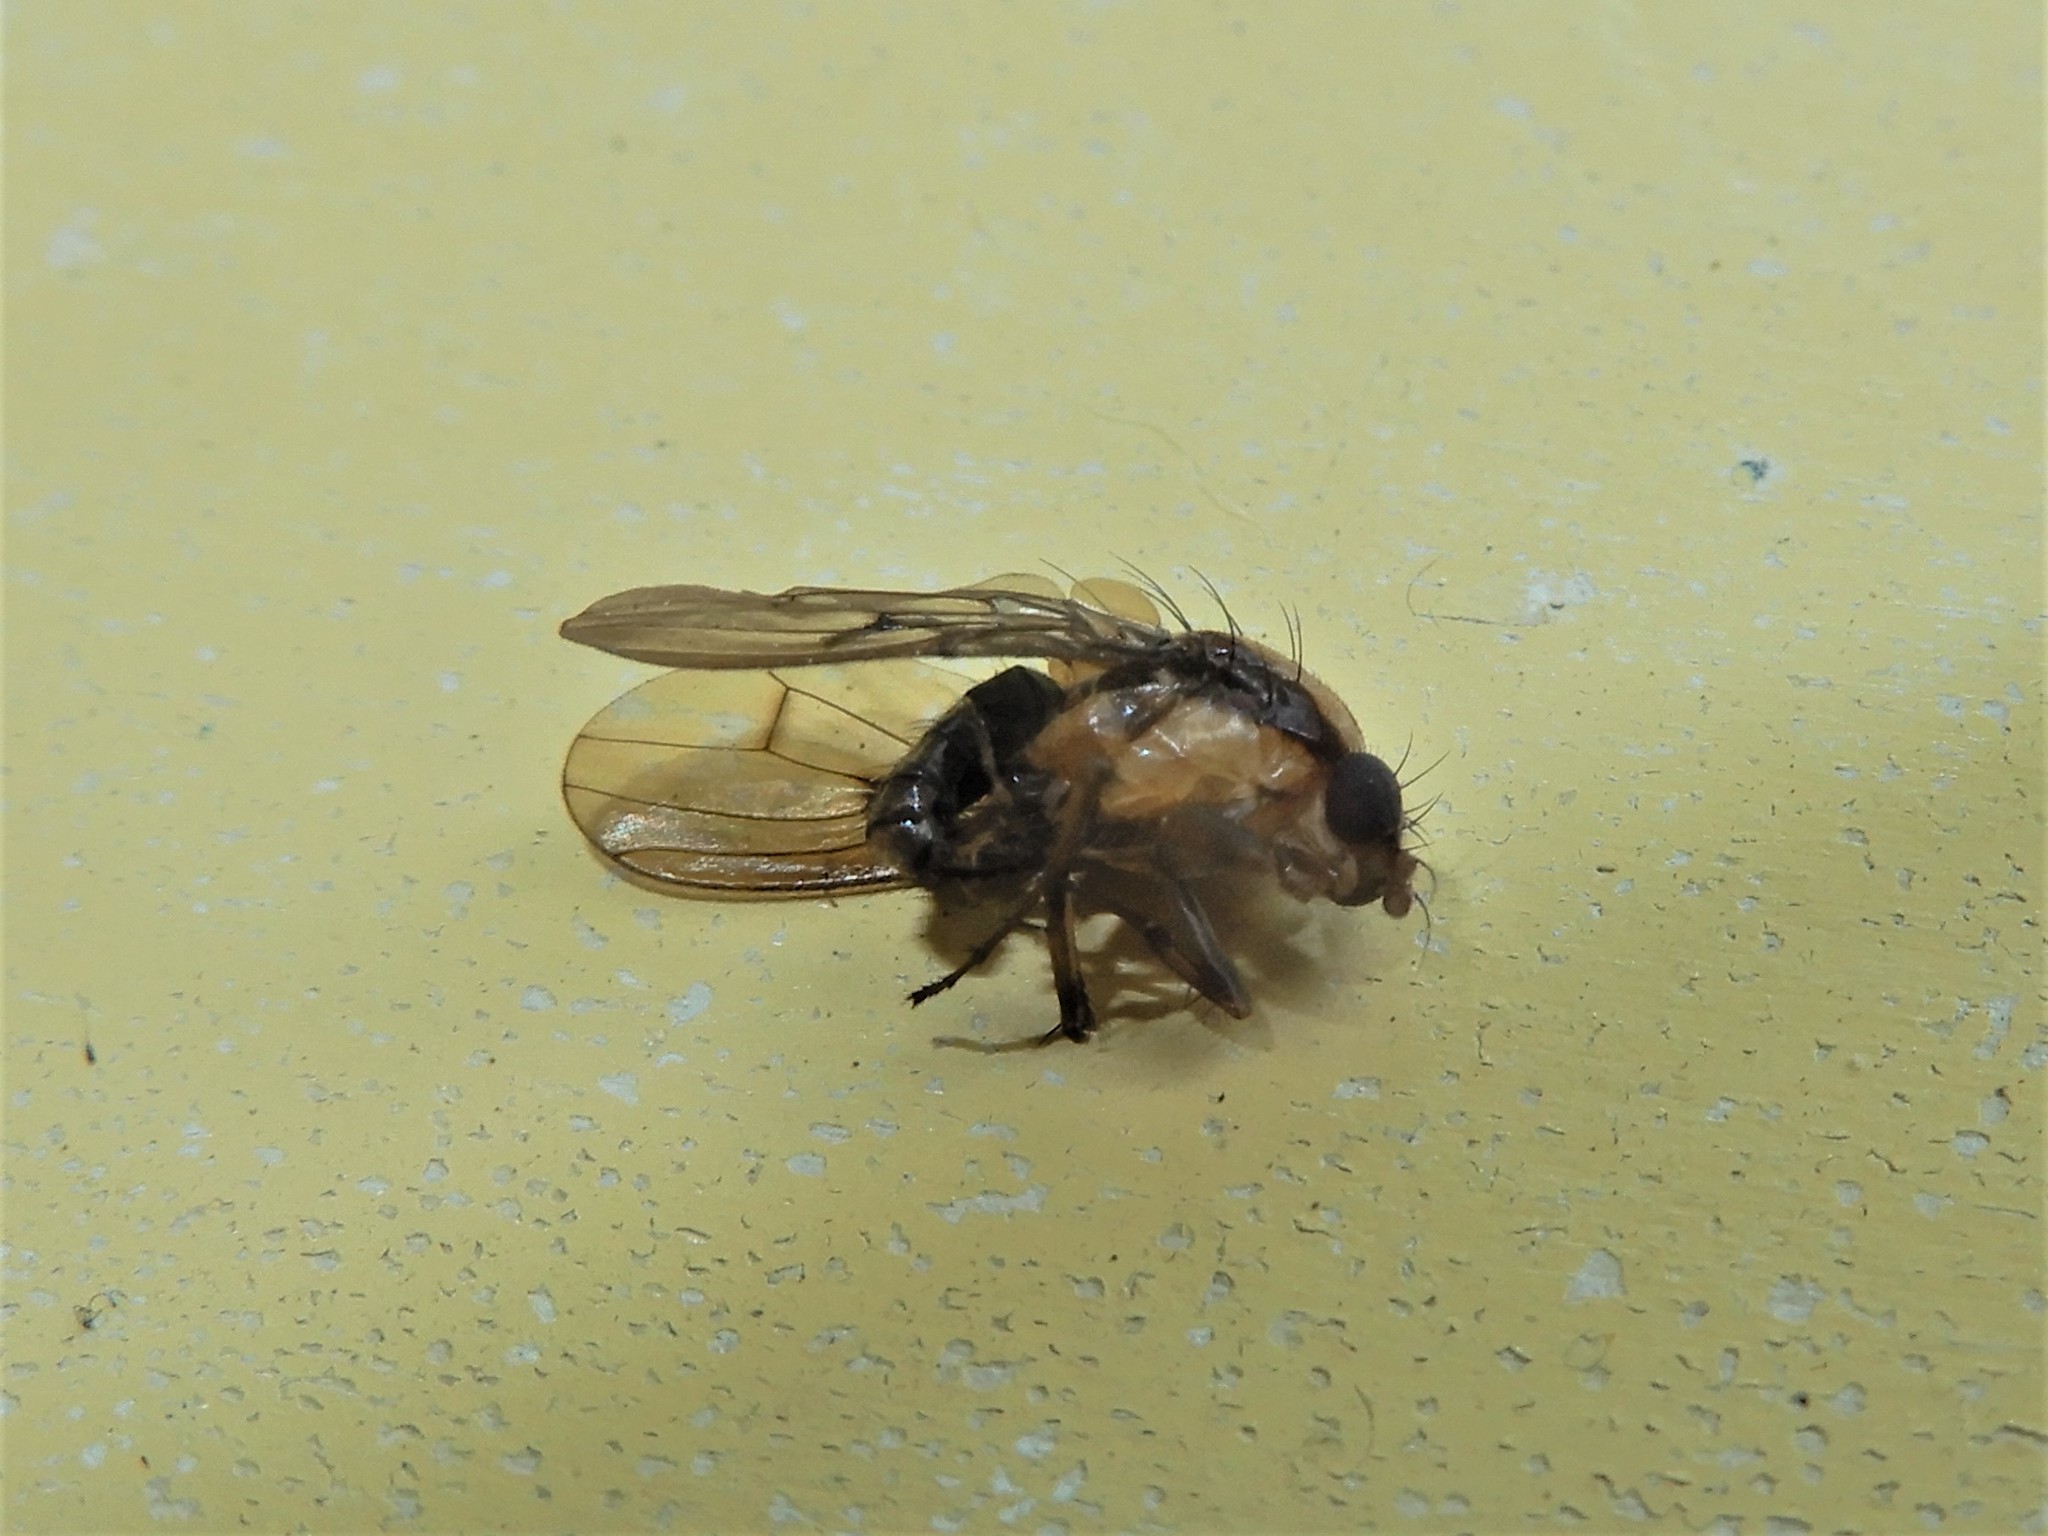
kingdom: Animalia
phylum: Arthropoda
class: Insecta
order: Diptera
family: Heleomyzidae
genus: Allophylopsis
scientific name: Allophylopsis scutellata
